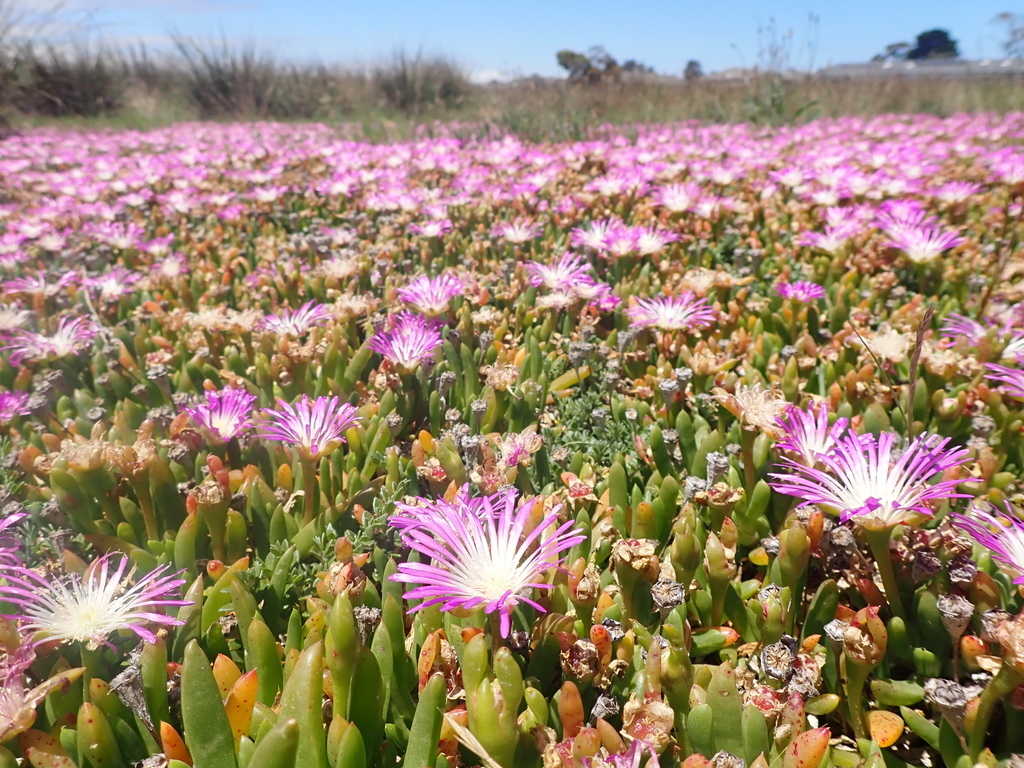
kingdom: Plantae
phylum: Tracheophyta
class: Magnoliopsida
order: Caryophyllales
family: Aizoaceae
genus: Disphyma
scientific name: Disphyma clavellatum
